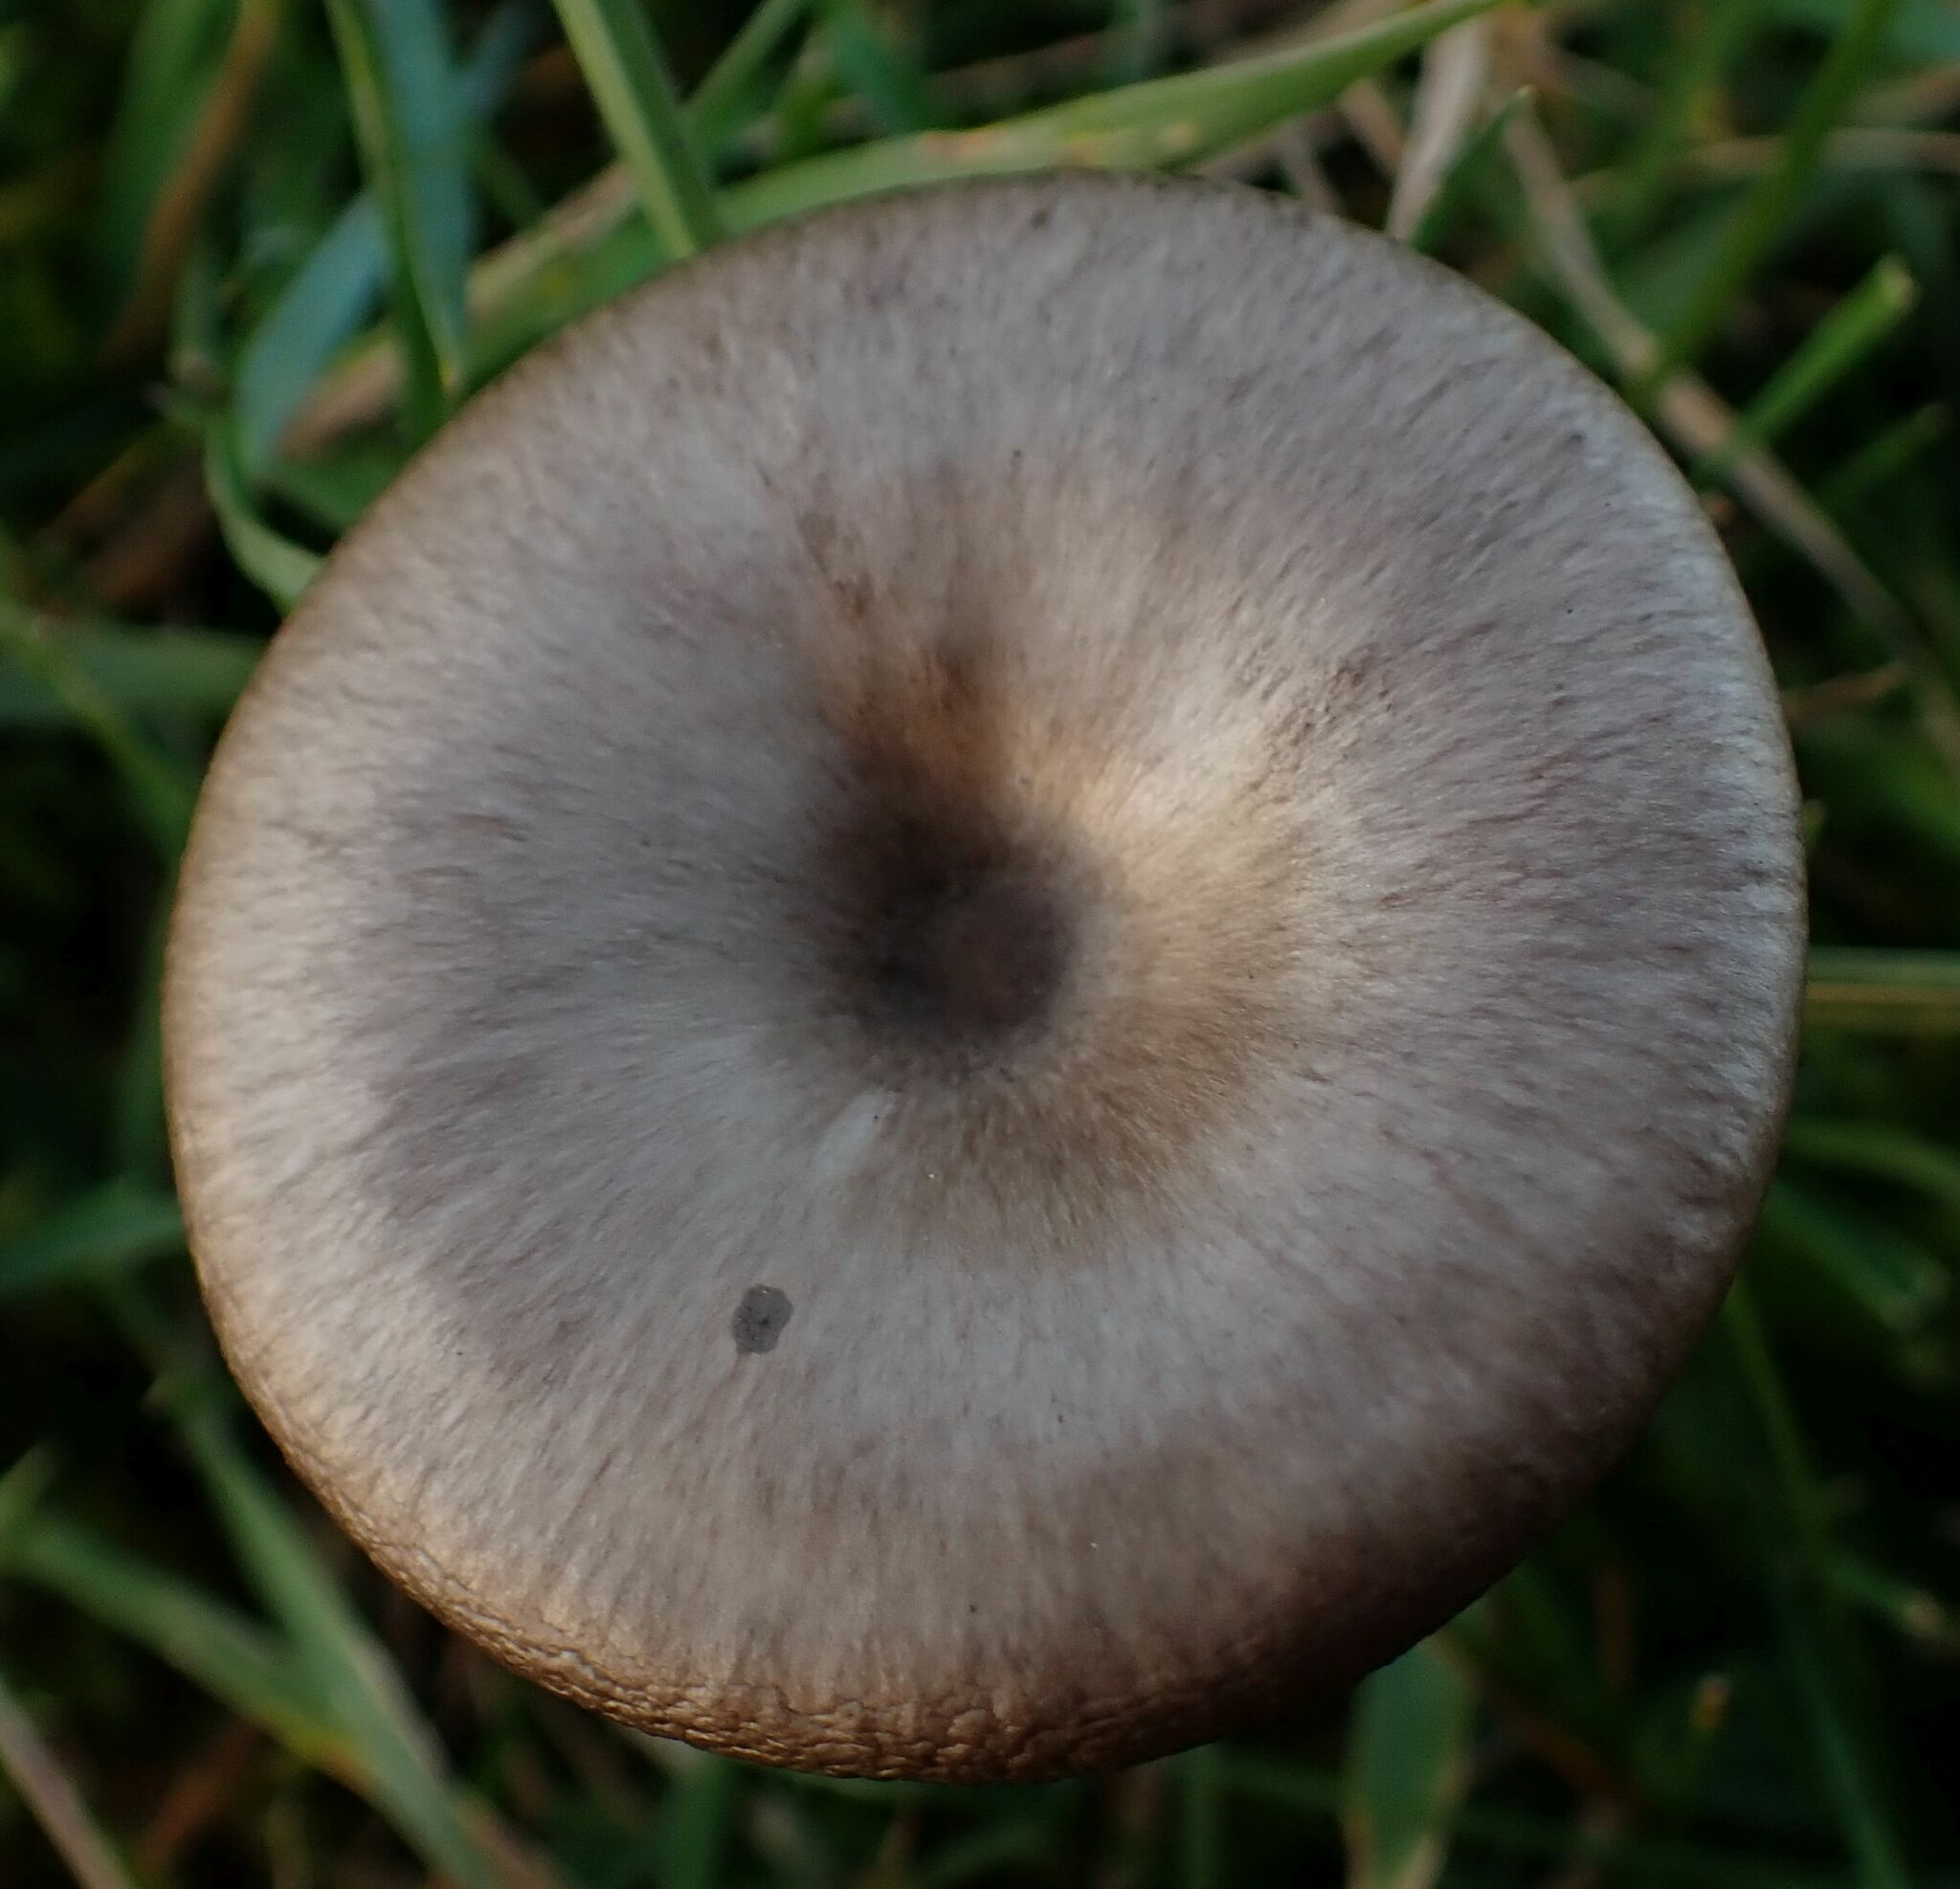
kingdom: Fungi
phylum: Basidiomycota
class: Agaricomycetes
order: Agaricales
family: Pseudoclitocybaceae
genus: Pseudoclitocybe
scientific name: Pseudoclitocybe obbata
